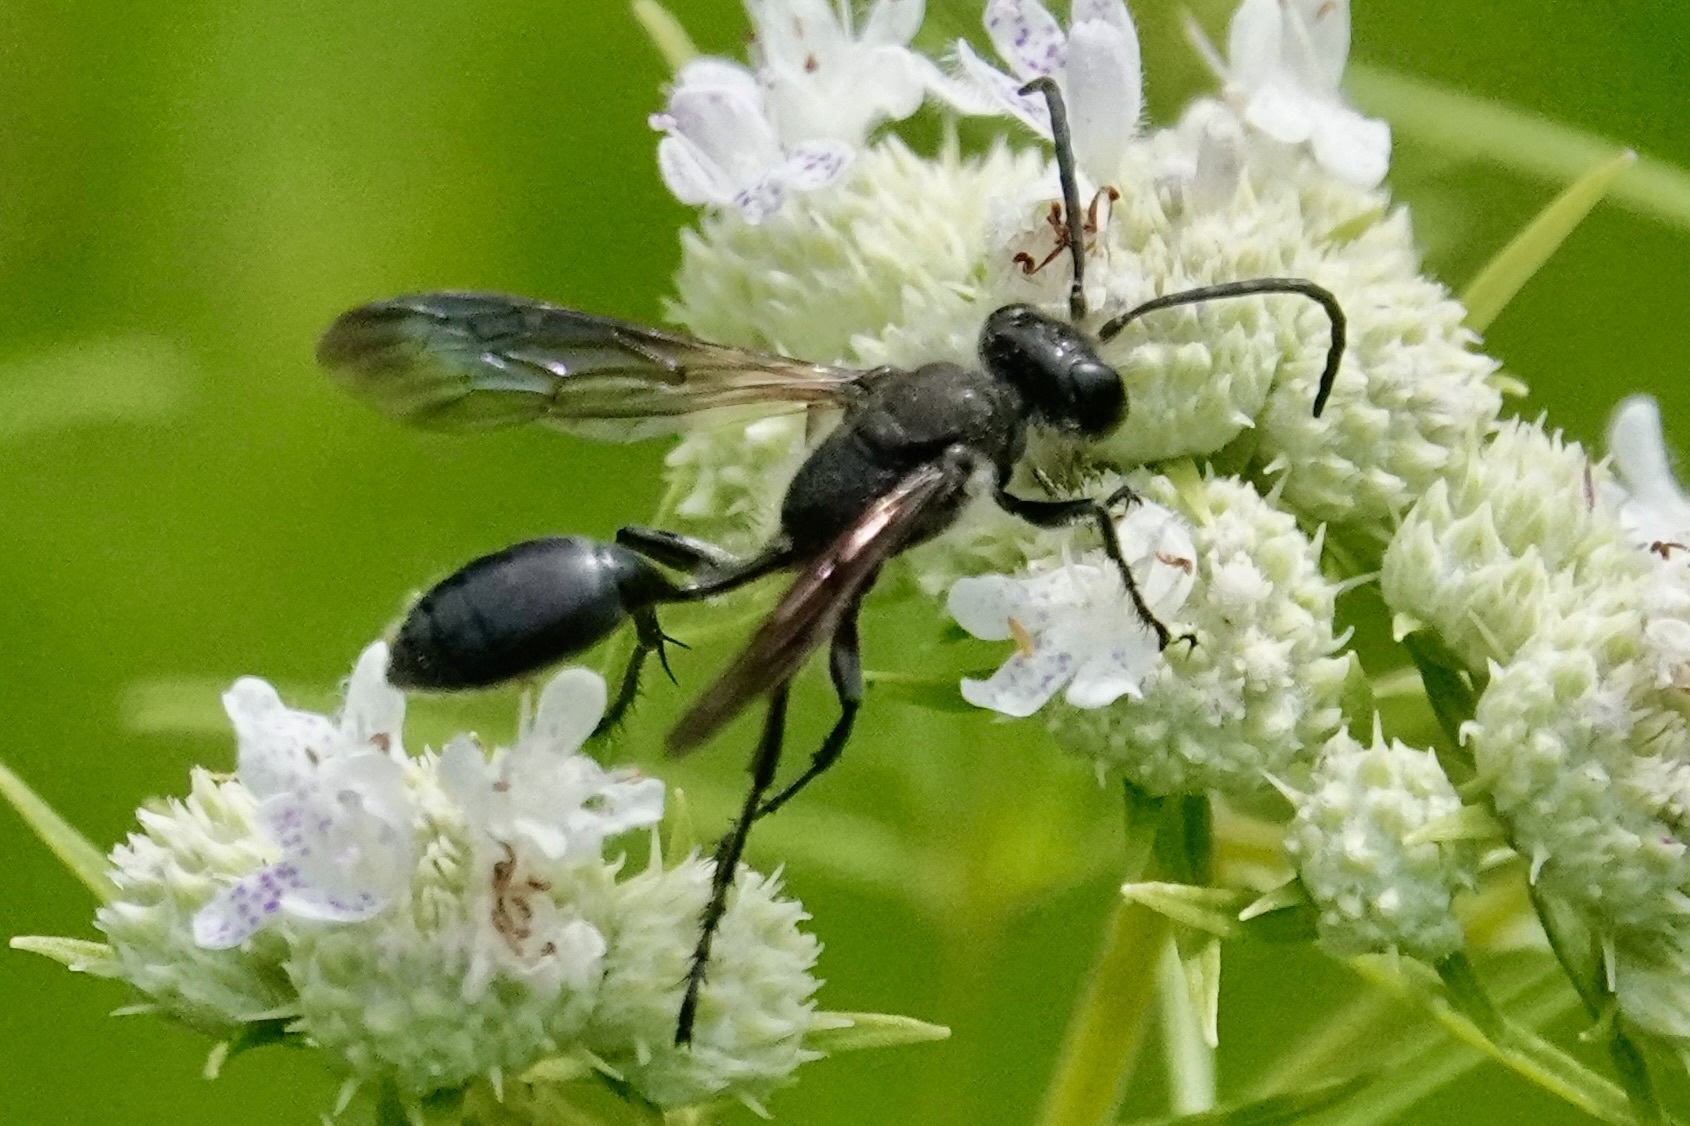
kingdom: Animalia
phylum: Arthropoda
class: Insecta
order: Hymenoptera
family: Sphecidae
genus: Isodontia
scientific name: Isodontia mexicana
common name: Mud dauber
